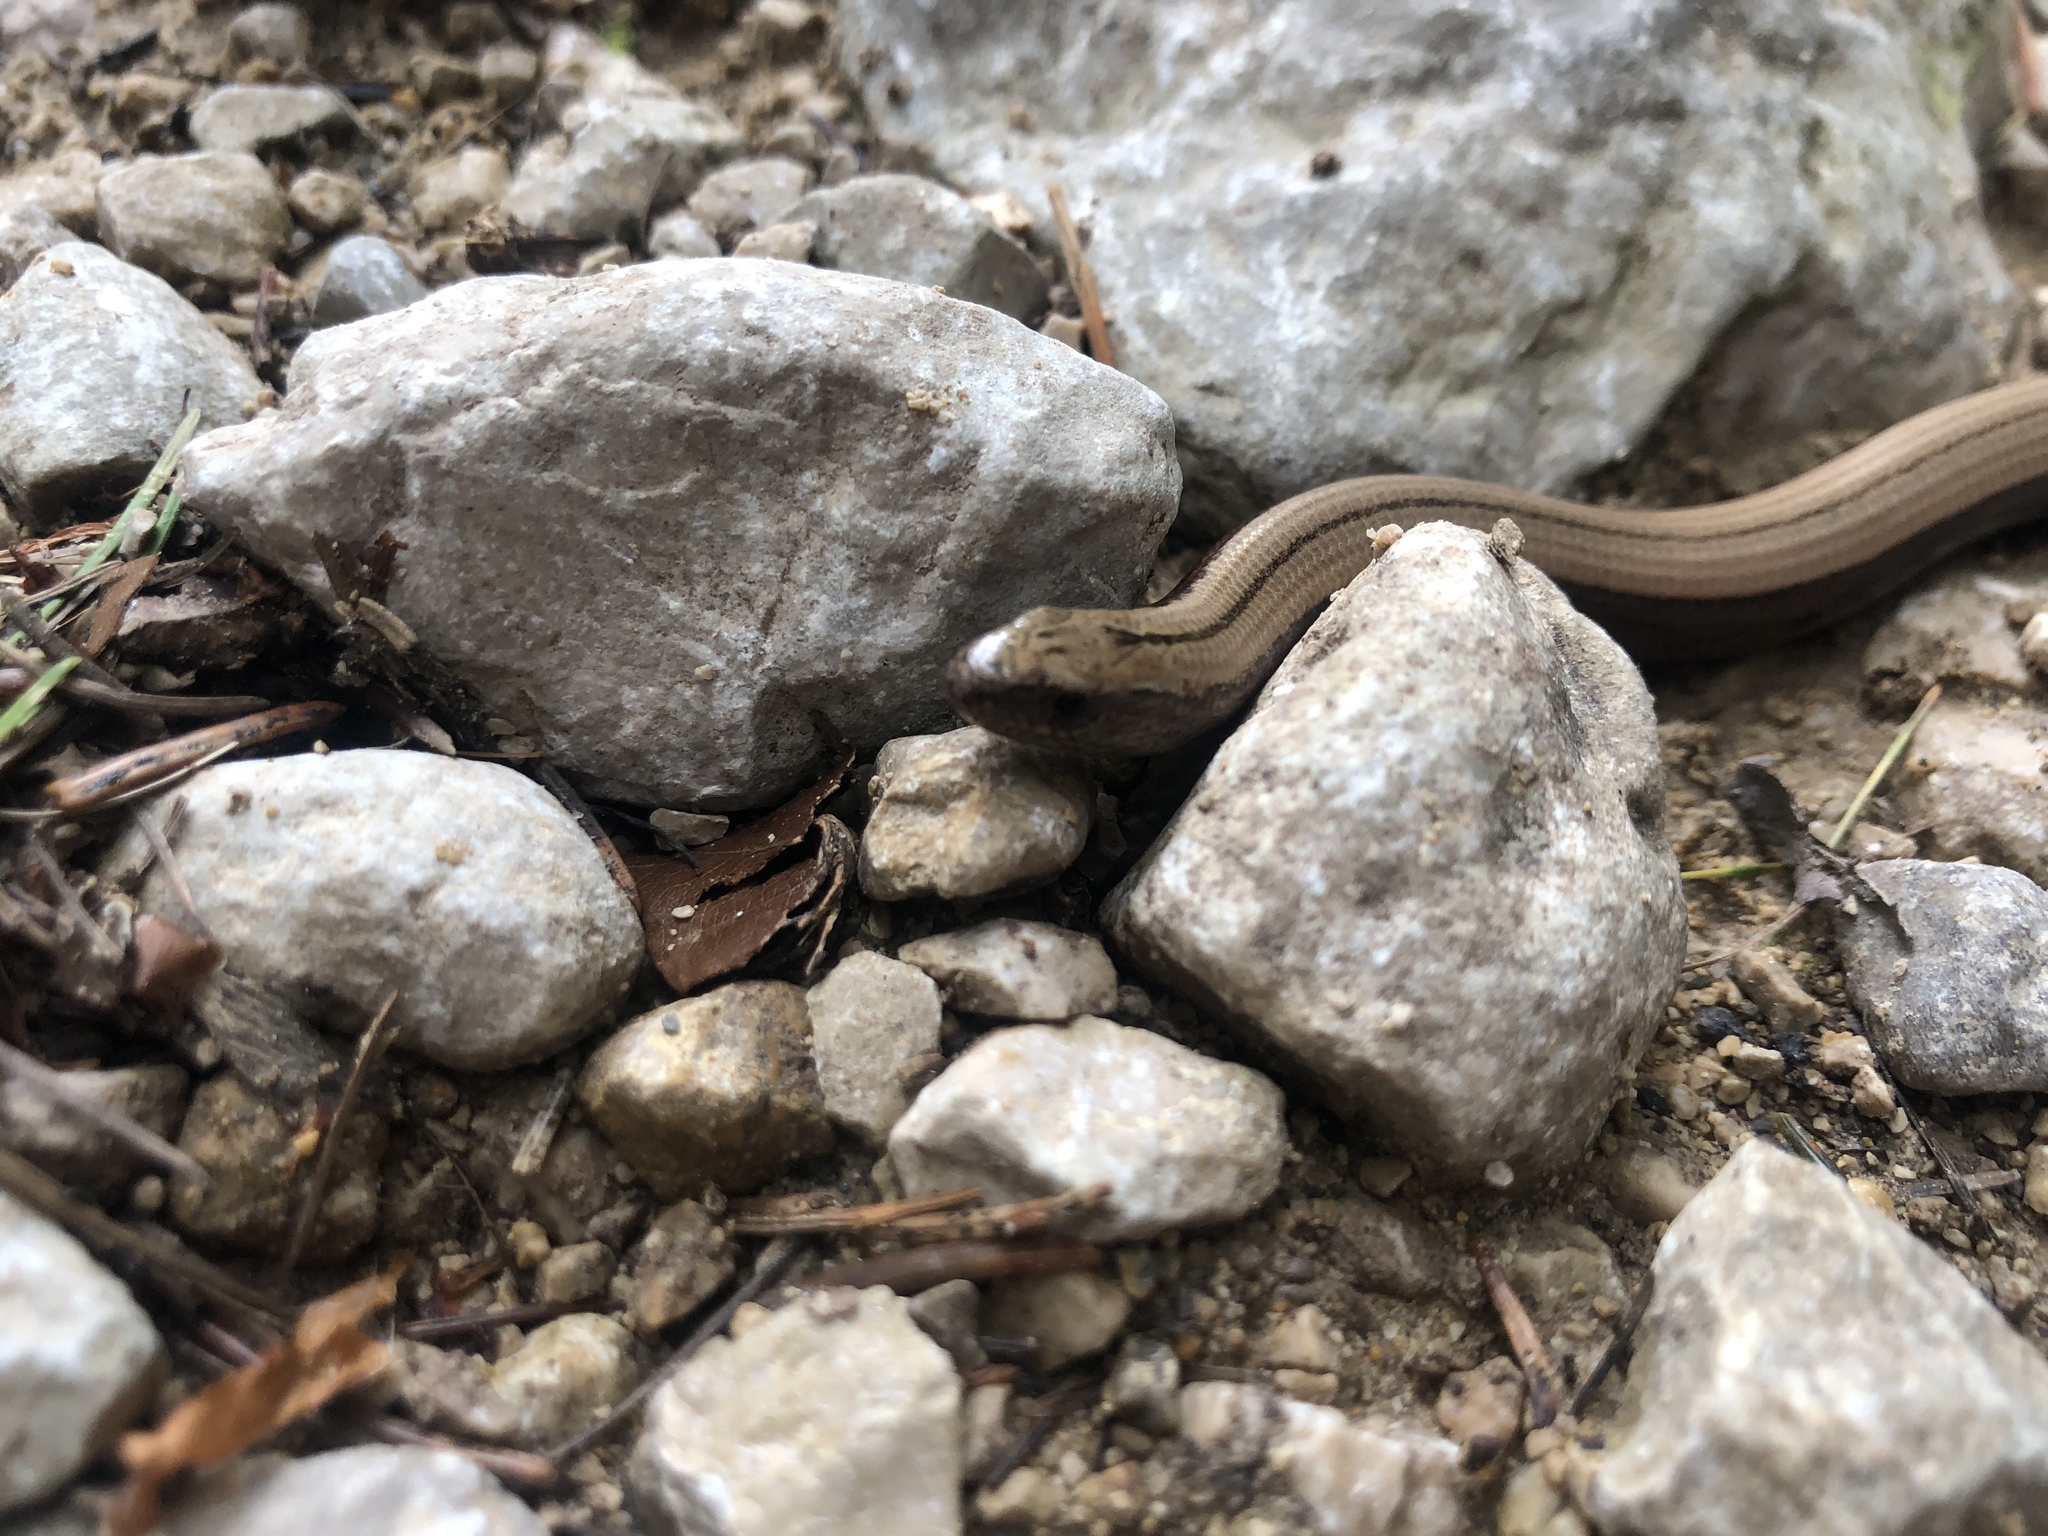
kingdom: Animalia
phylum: Chordata
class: Squamata
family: Anguidae
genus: Anguis
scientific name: Anguis fragilis
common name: Slow worm
